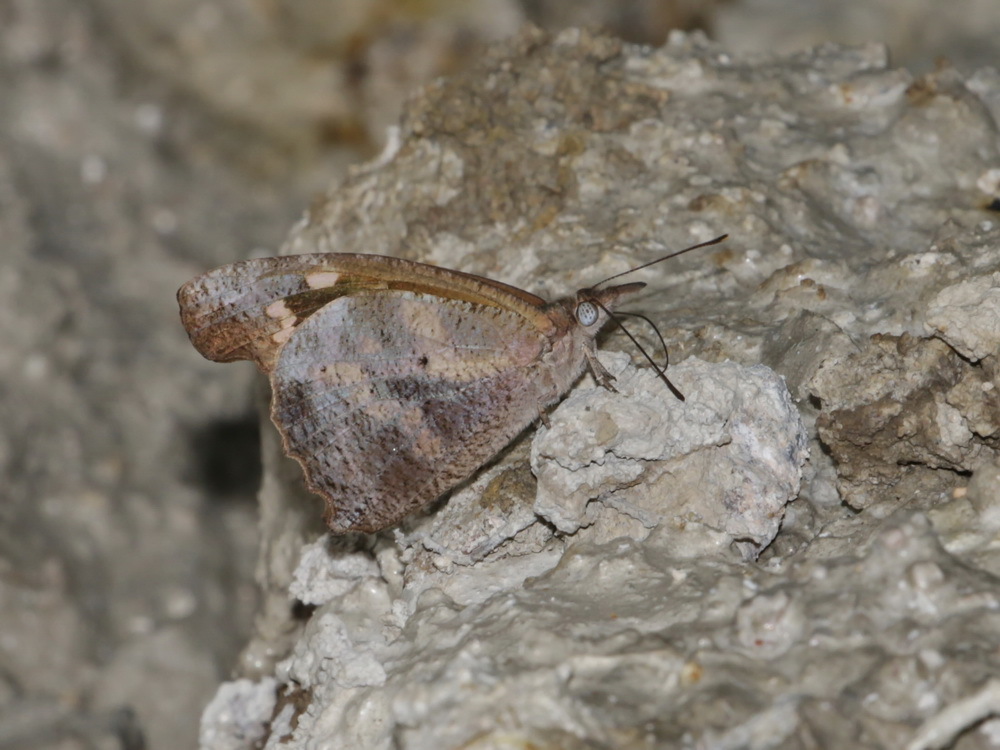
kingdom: Animalia
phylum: Arthropoda
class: Insecta
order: Lepidoptera
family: Nymphalidae
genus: Libythea
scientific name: Libythea geoffroy
